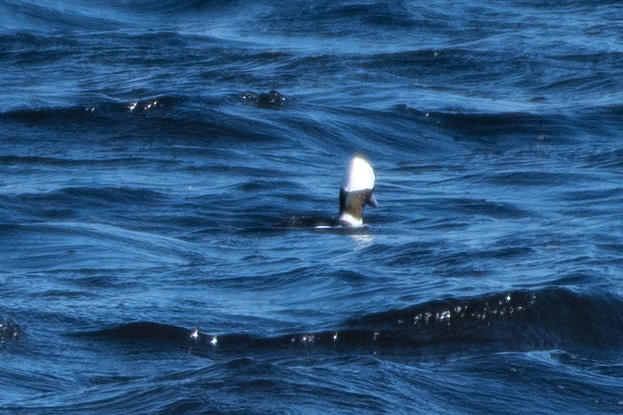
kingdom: Animalia
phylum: Chordata
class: Aves
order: Anseriformes
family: Anatidae
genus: Bucephala
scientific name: Bucephala albeola
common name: Bufflehead
